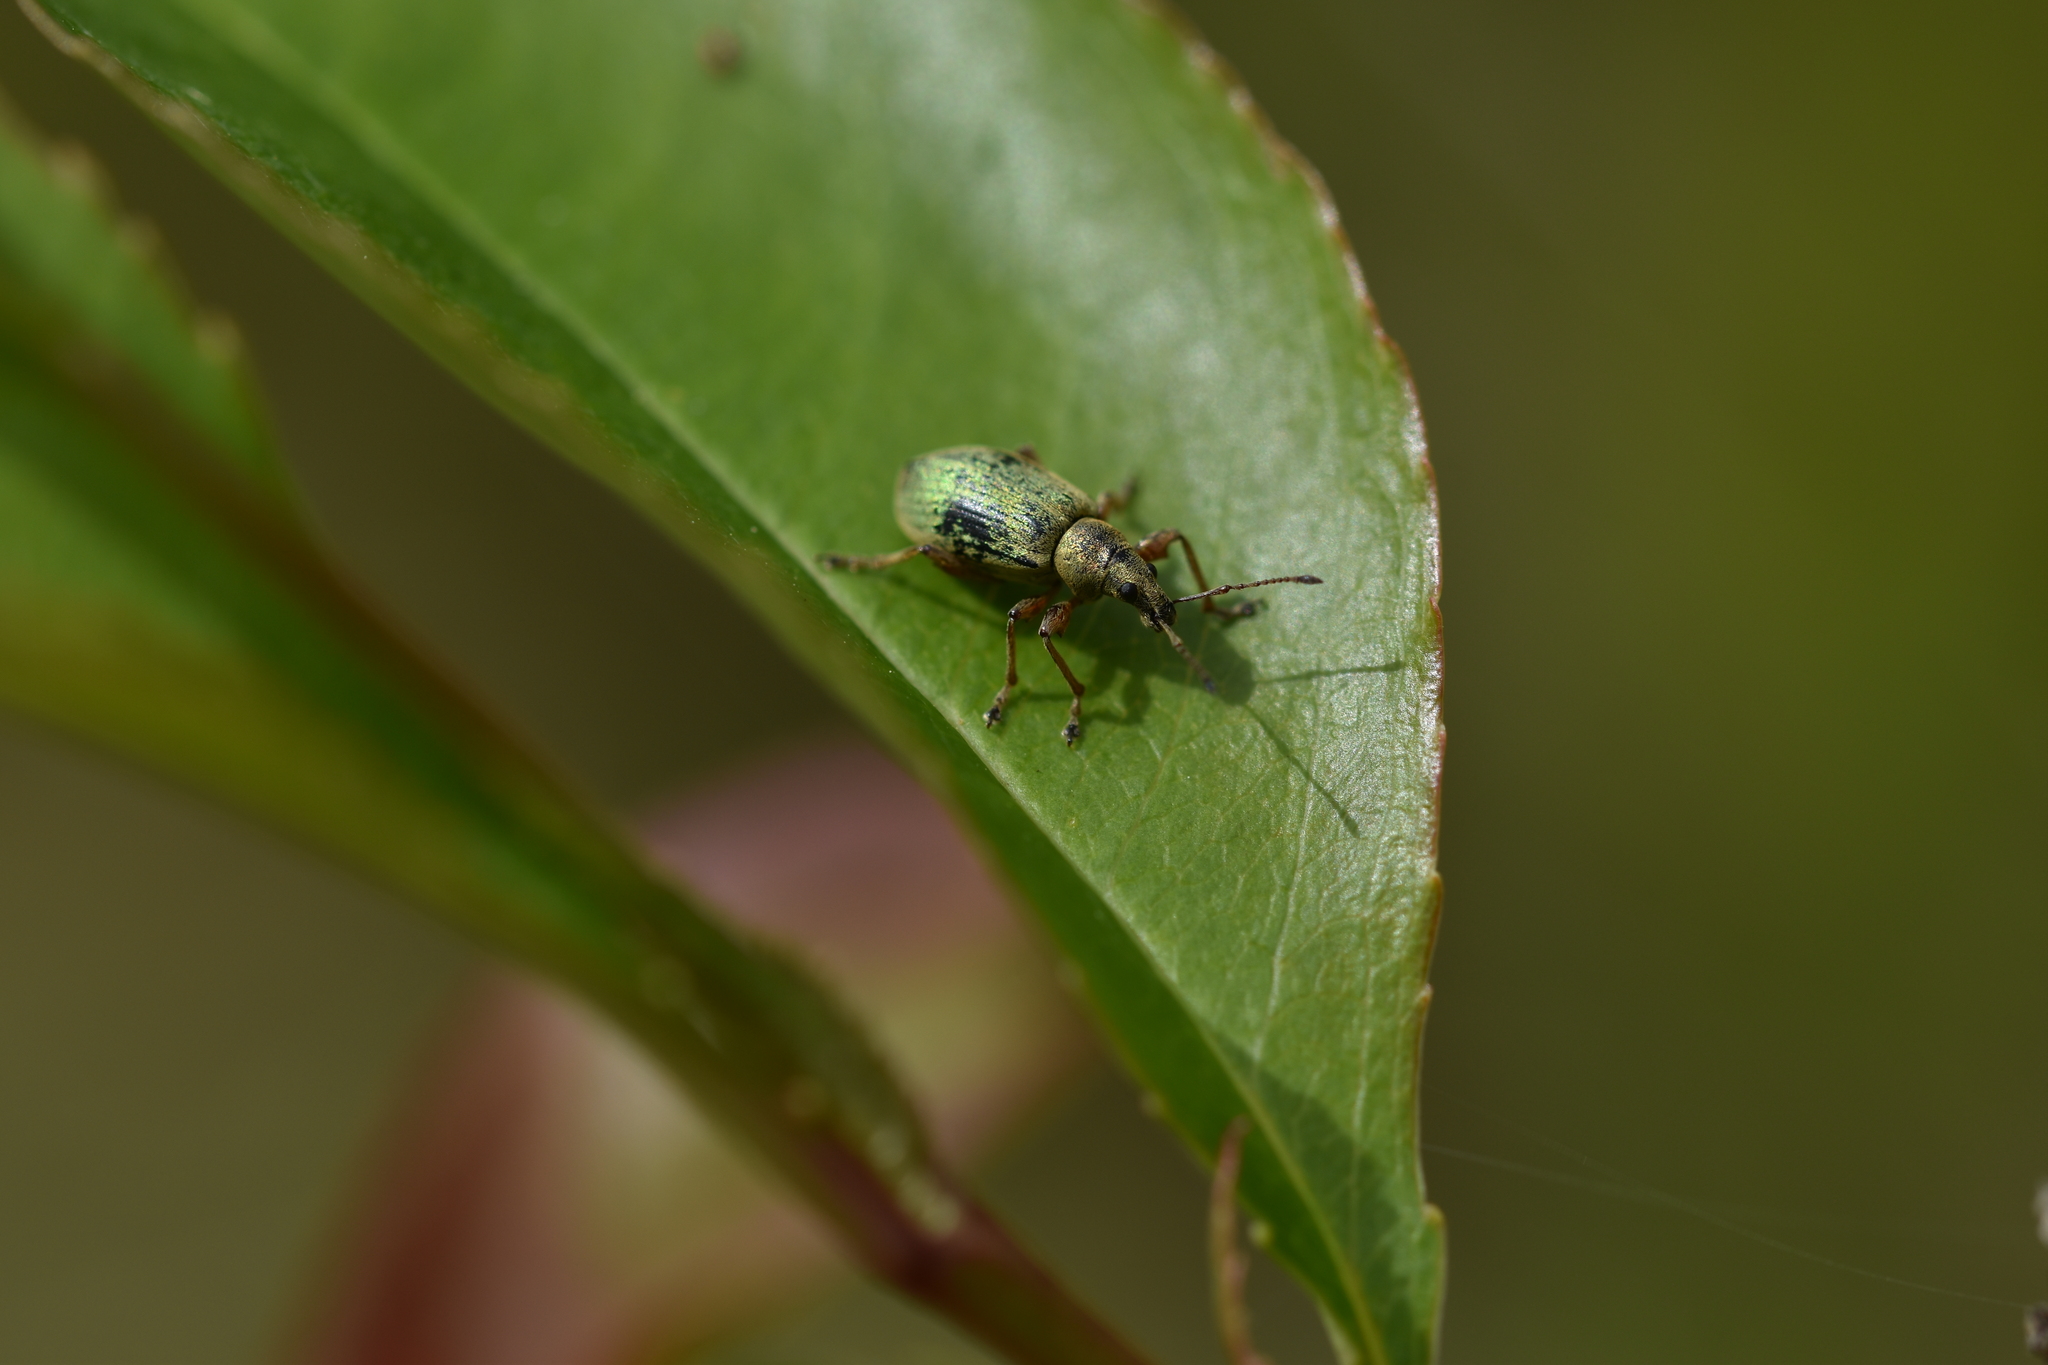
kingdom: Animalia
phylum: Arthropoda
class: Insecta
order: Coleoptera
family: Curculionidae
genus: Phyllobius
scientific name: Phyllobius pomaceus
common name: Green nettle weevil
